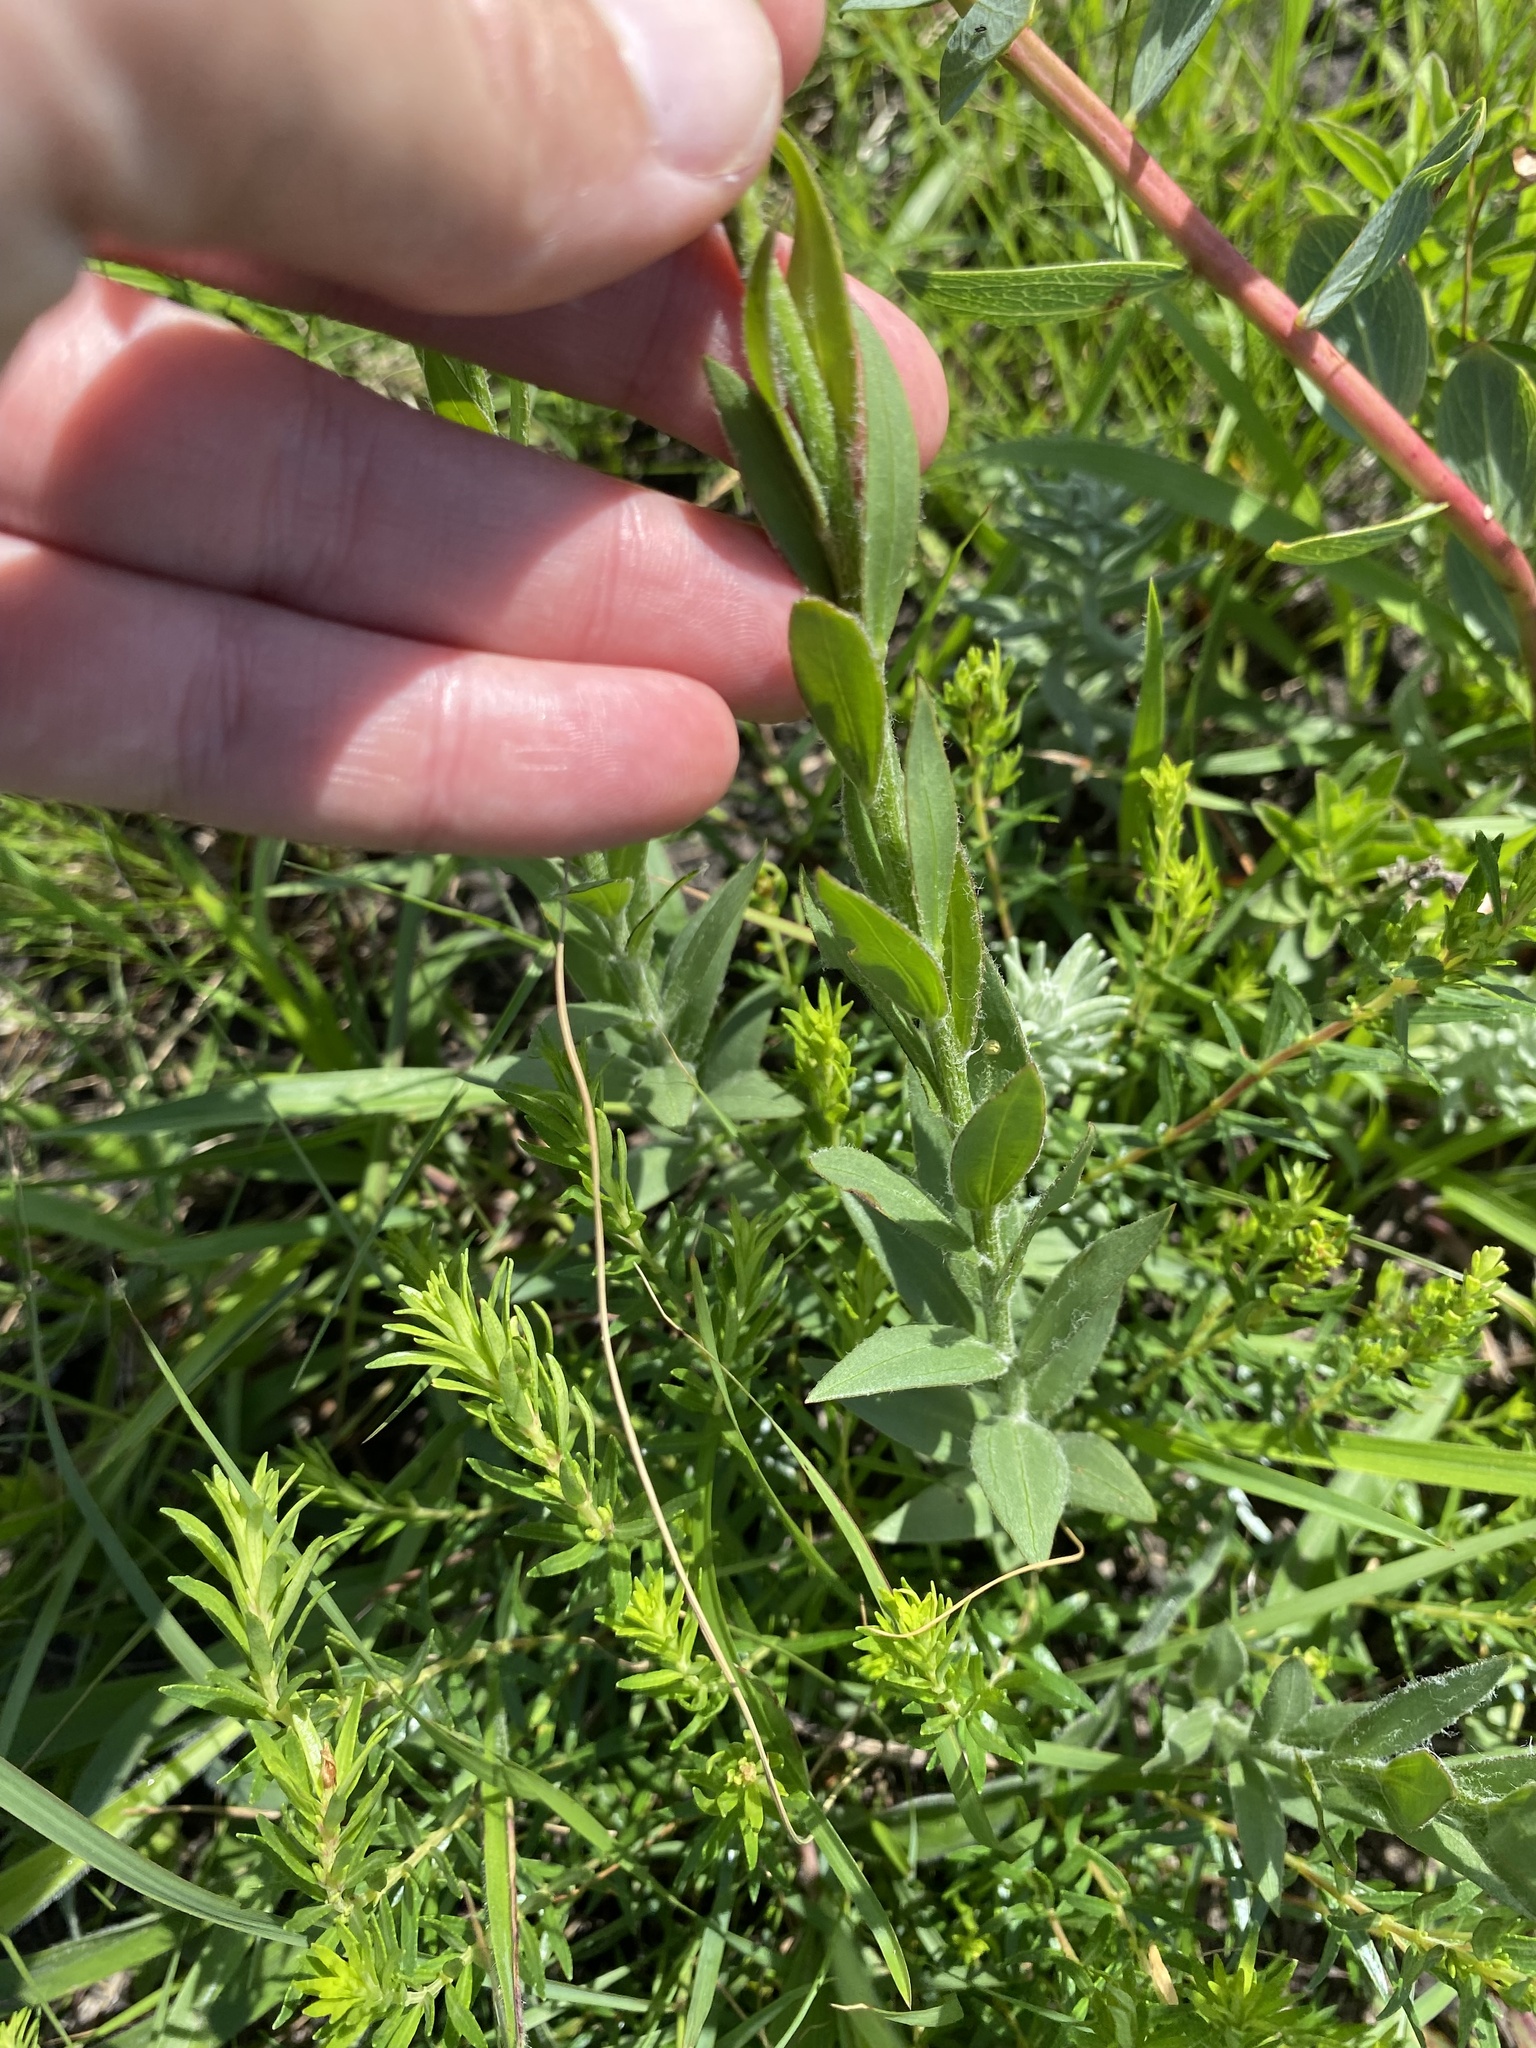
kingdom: Plantae
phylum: Tracheophyta
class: Magnoliopsida
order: Asterales
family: Asteraceae
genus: Callilepis
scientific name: Callilepis laureola
